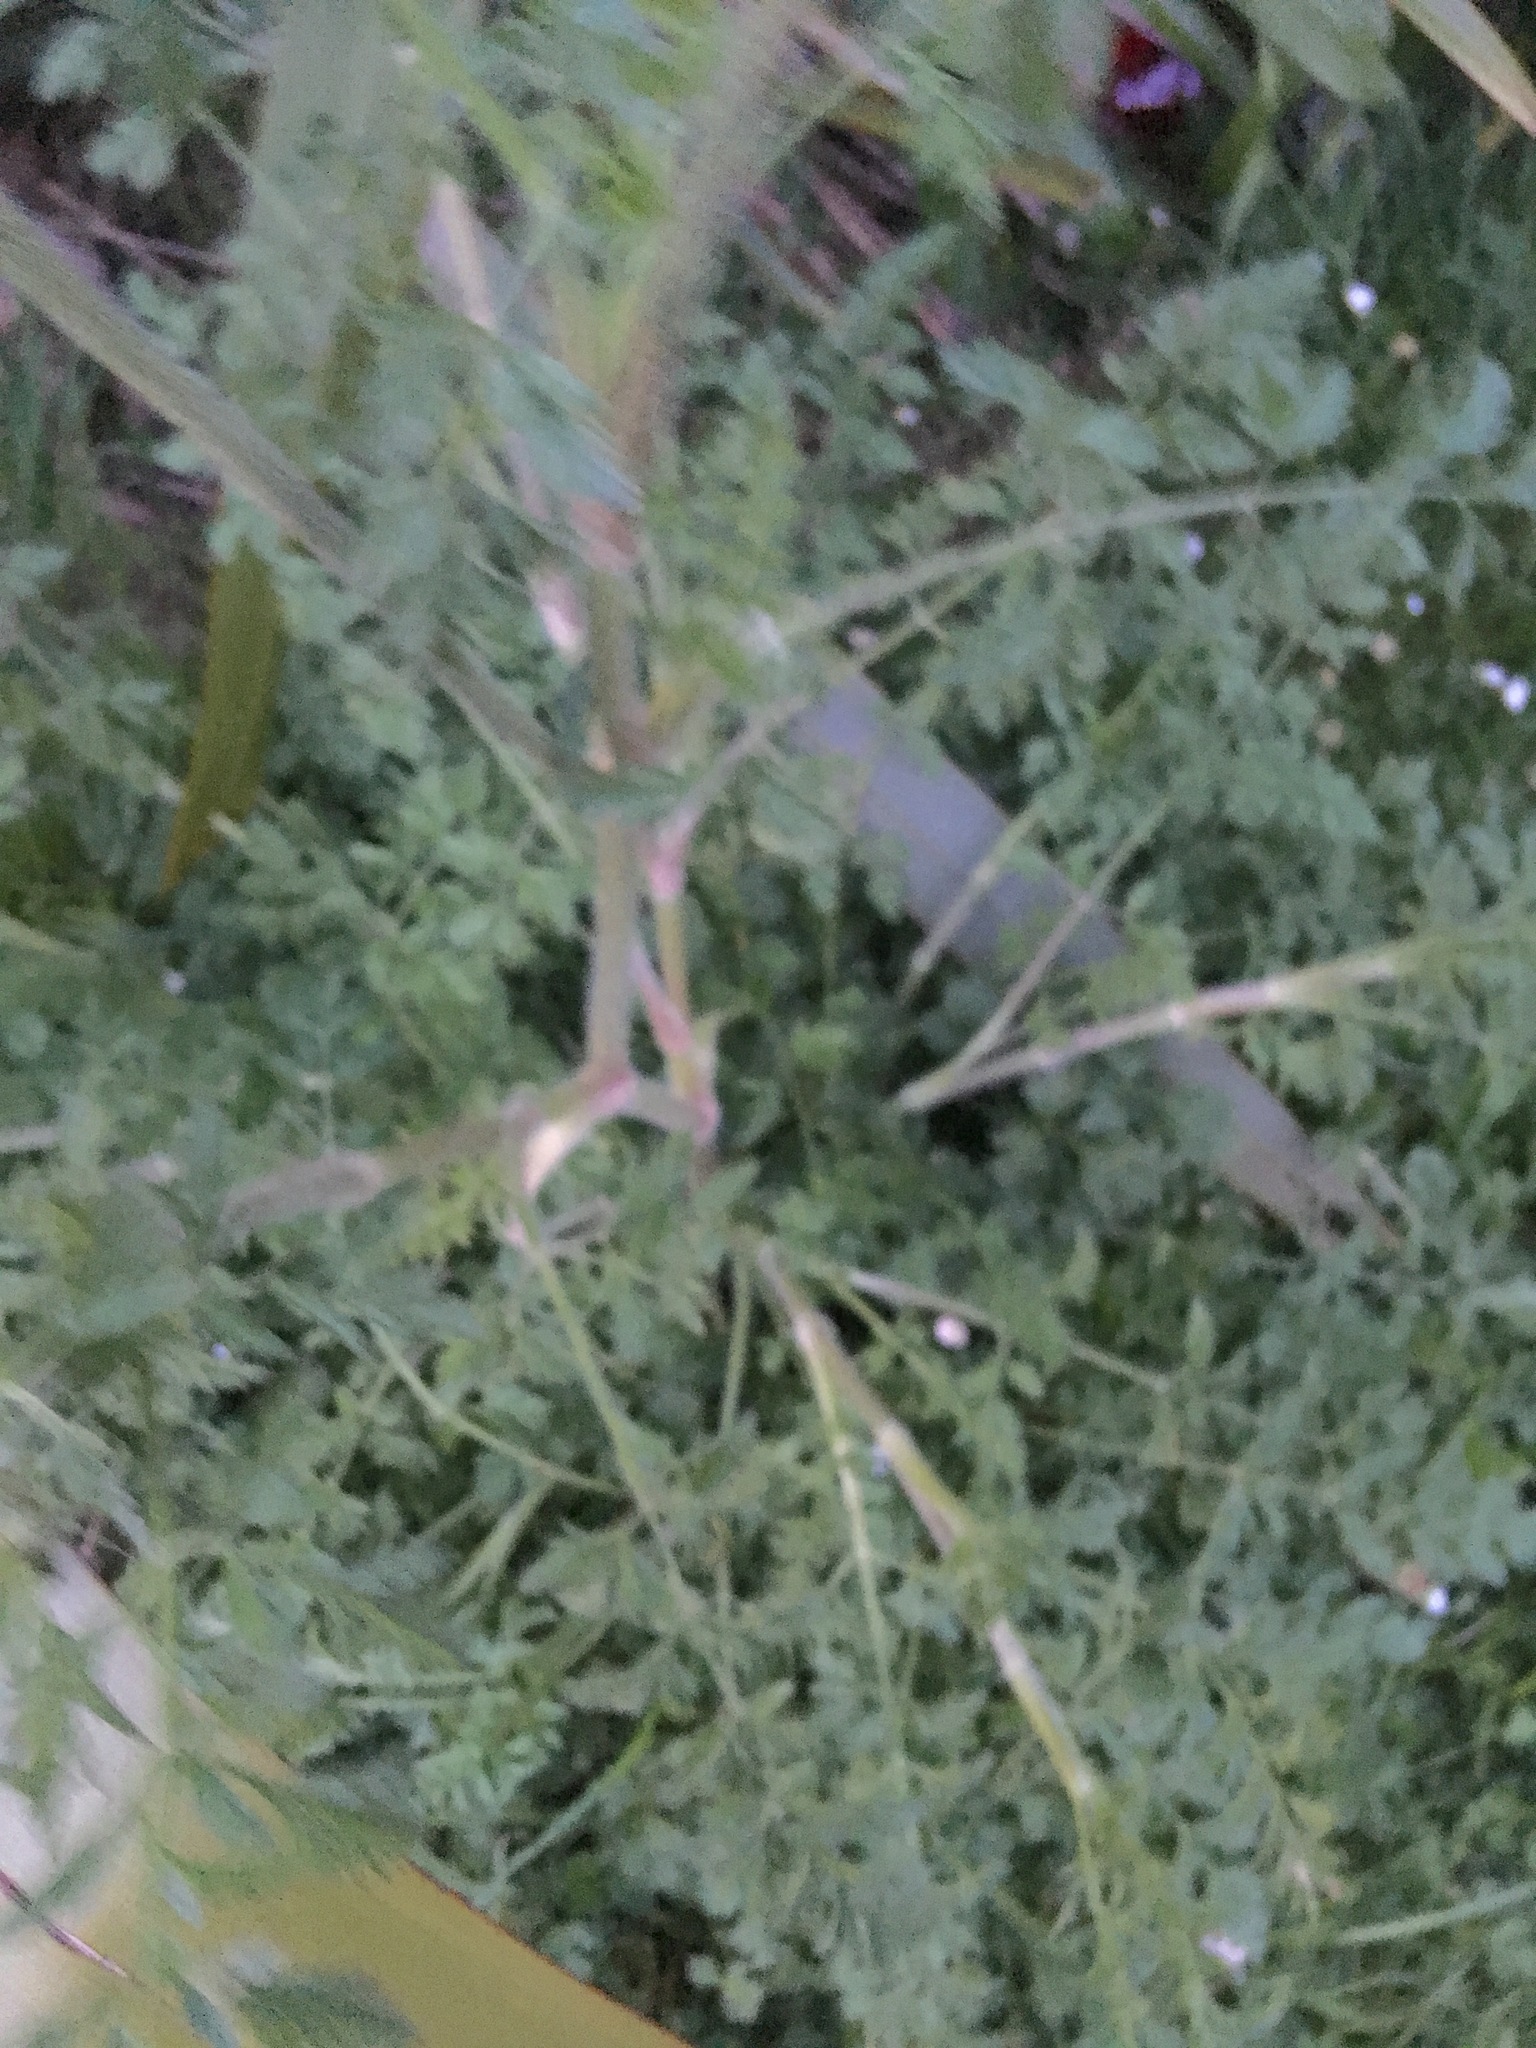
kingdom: Plantae
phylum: Tracheophyta
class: Magnoliopsida
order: Apiales
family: Apiaceae
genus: Daucus
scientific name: Daucus carota
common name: Wild carrot
